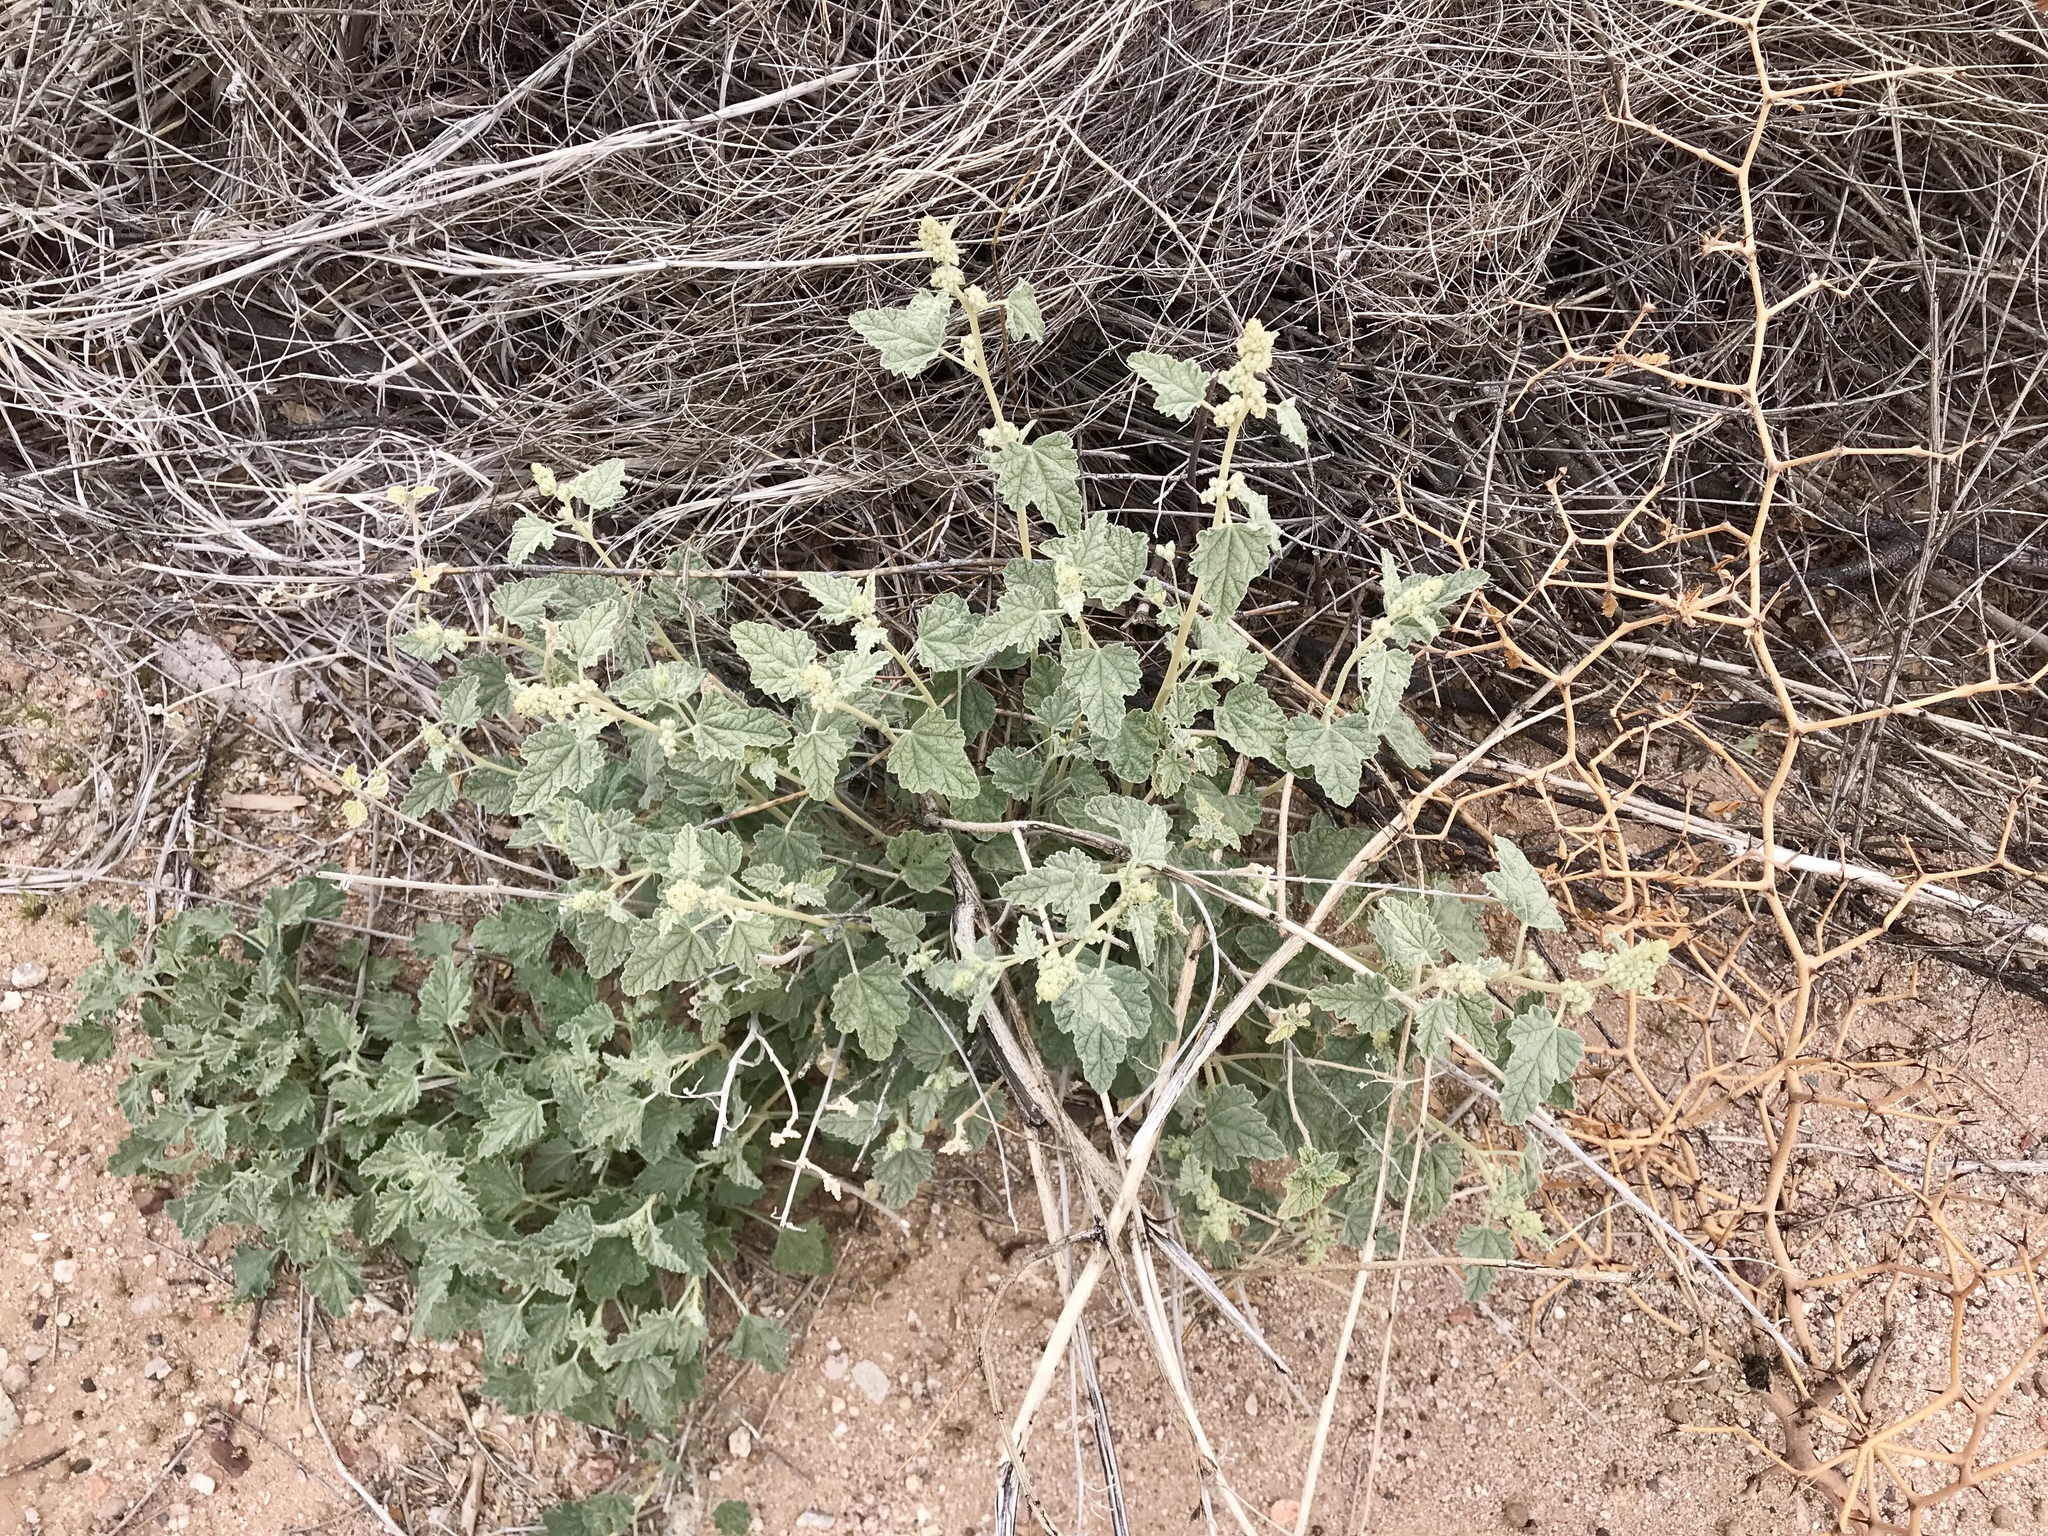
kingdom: Plantae
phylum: Tracheophyta
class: Magnoliopsida
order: Malvales
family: Malvaceae
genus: Sphaeralcea
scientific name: Sphaeralcea ambigua
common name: Apricot globe-mallow
